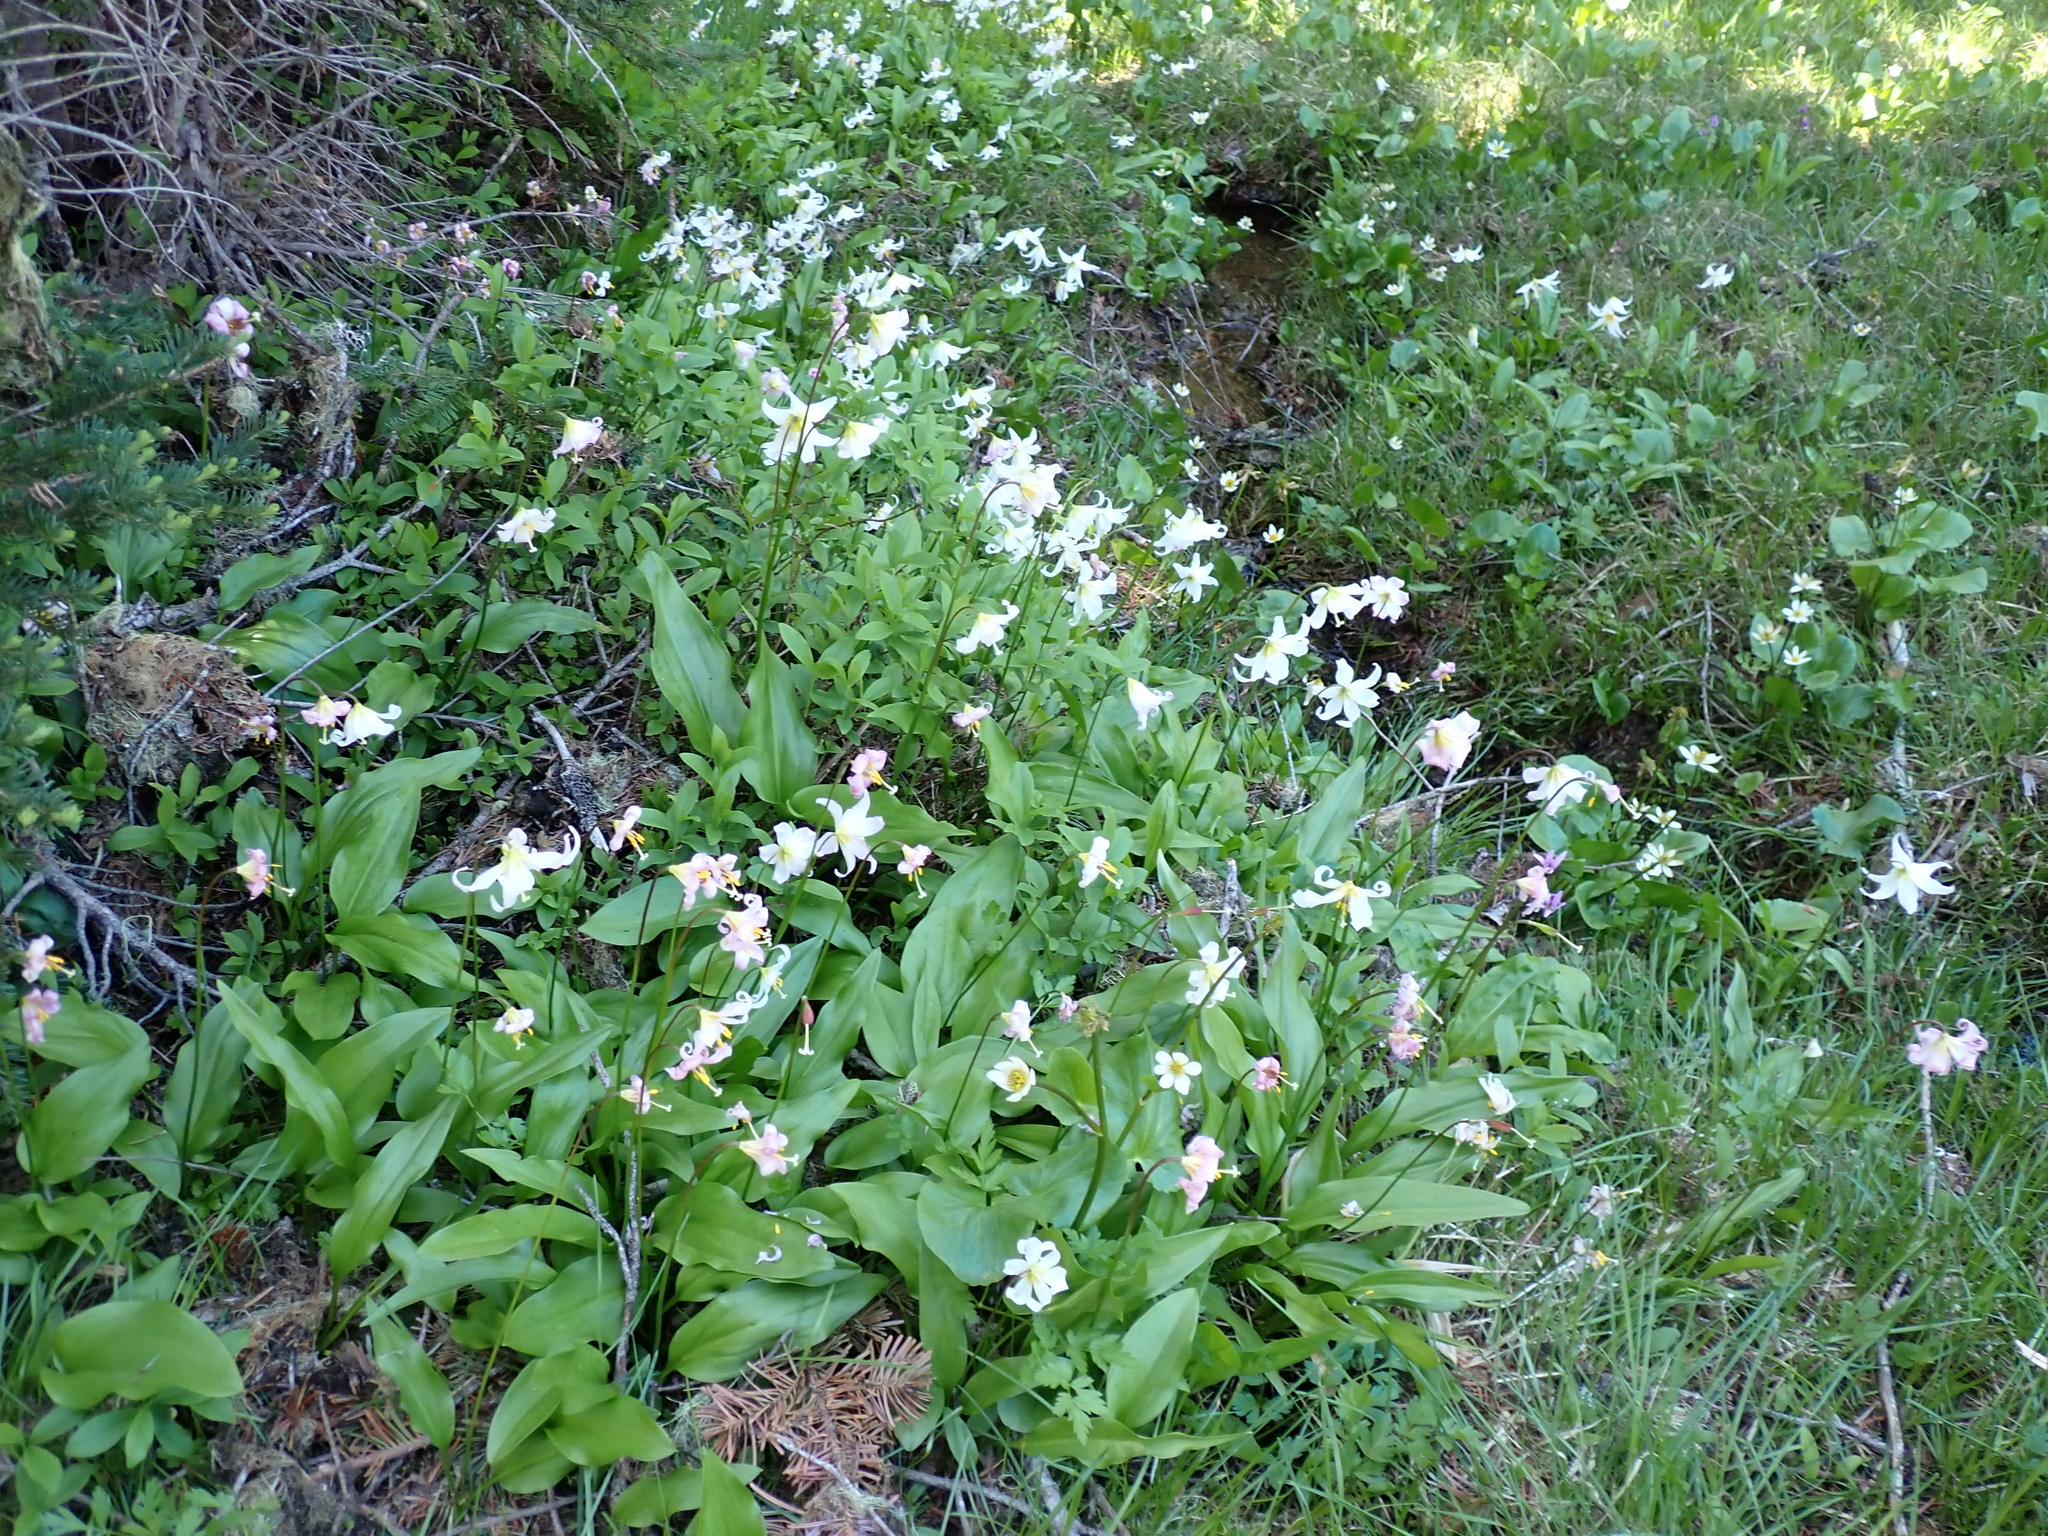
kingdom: Plantae
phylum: Tracheophyta
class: Liliopsida
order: Liliales
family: Liliaceae
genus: Erythronium
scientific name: Erythronium montanum
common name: Avalanche lily
